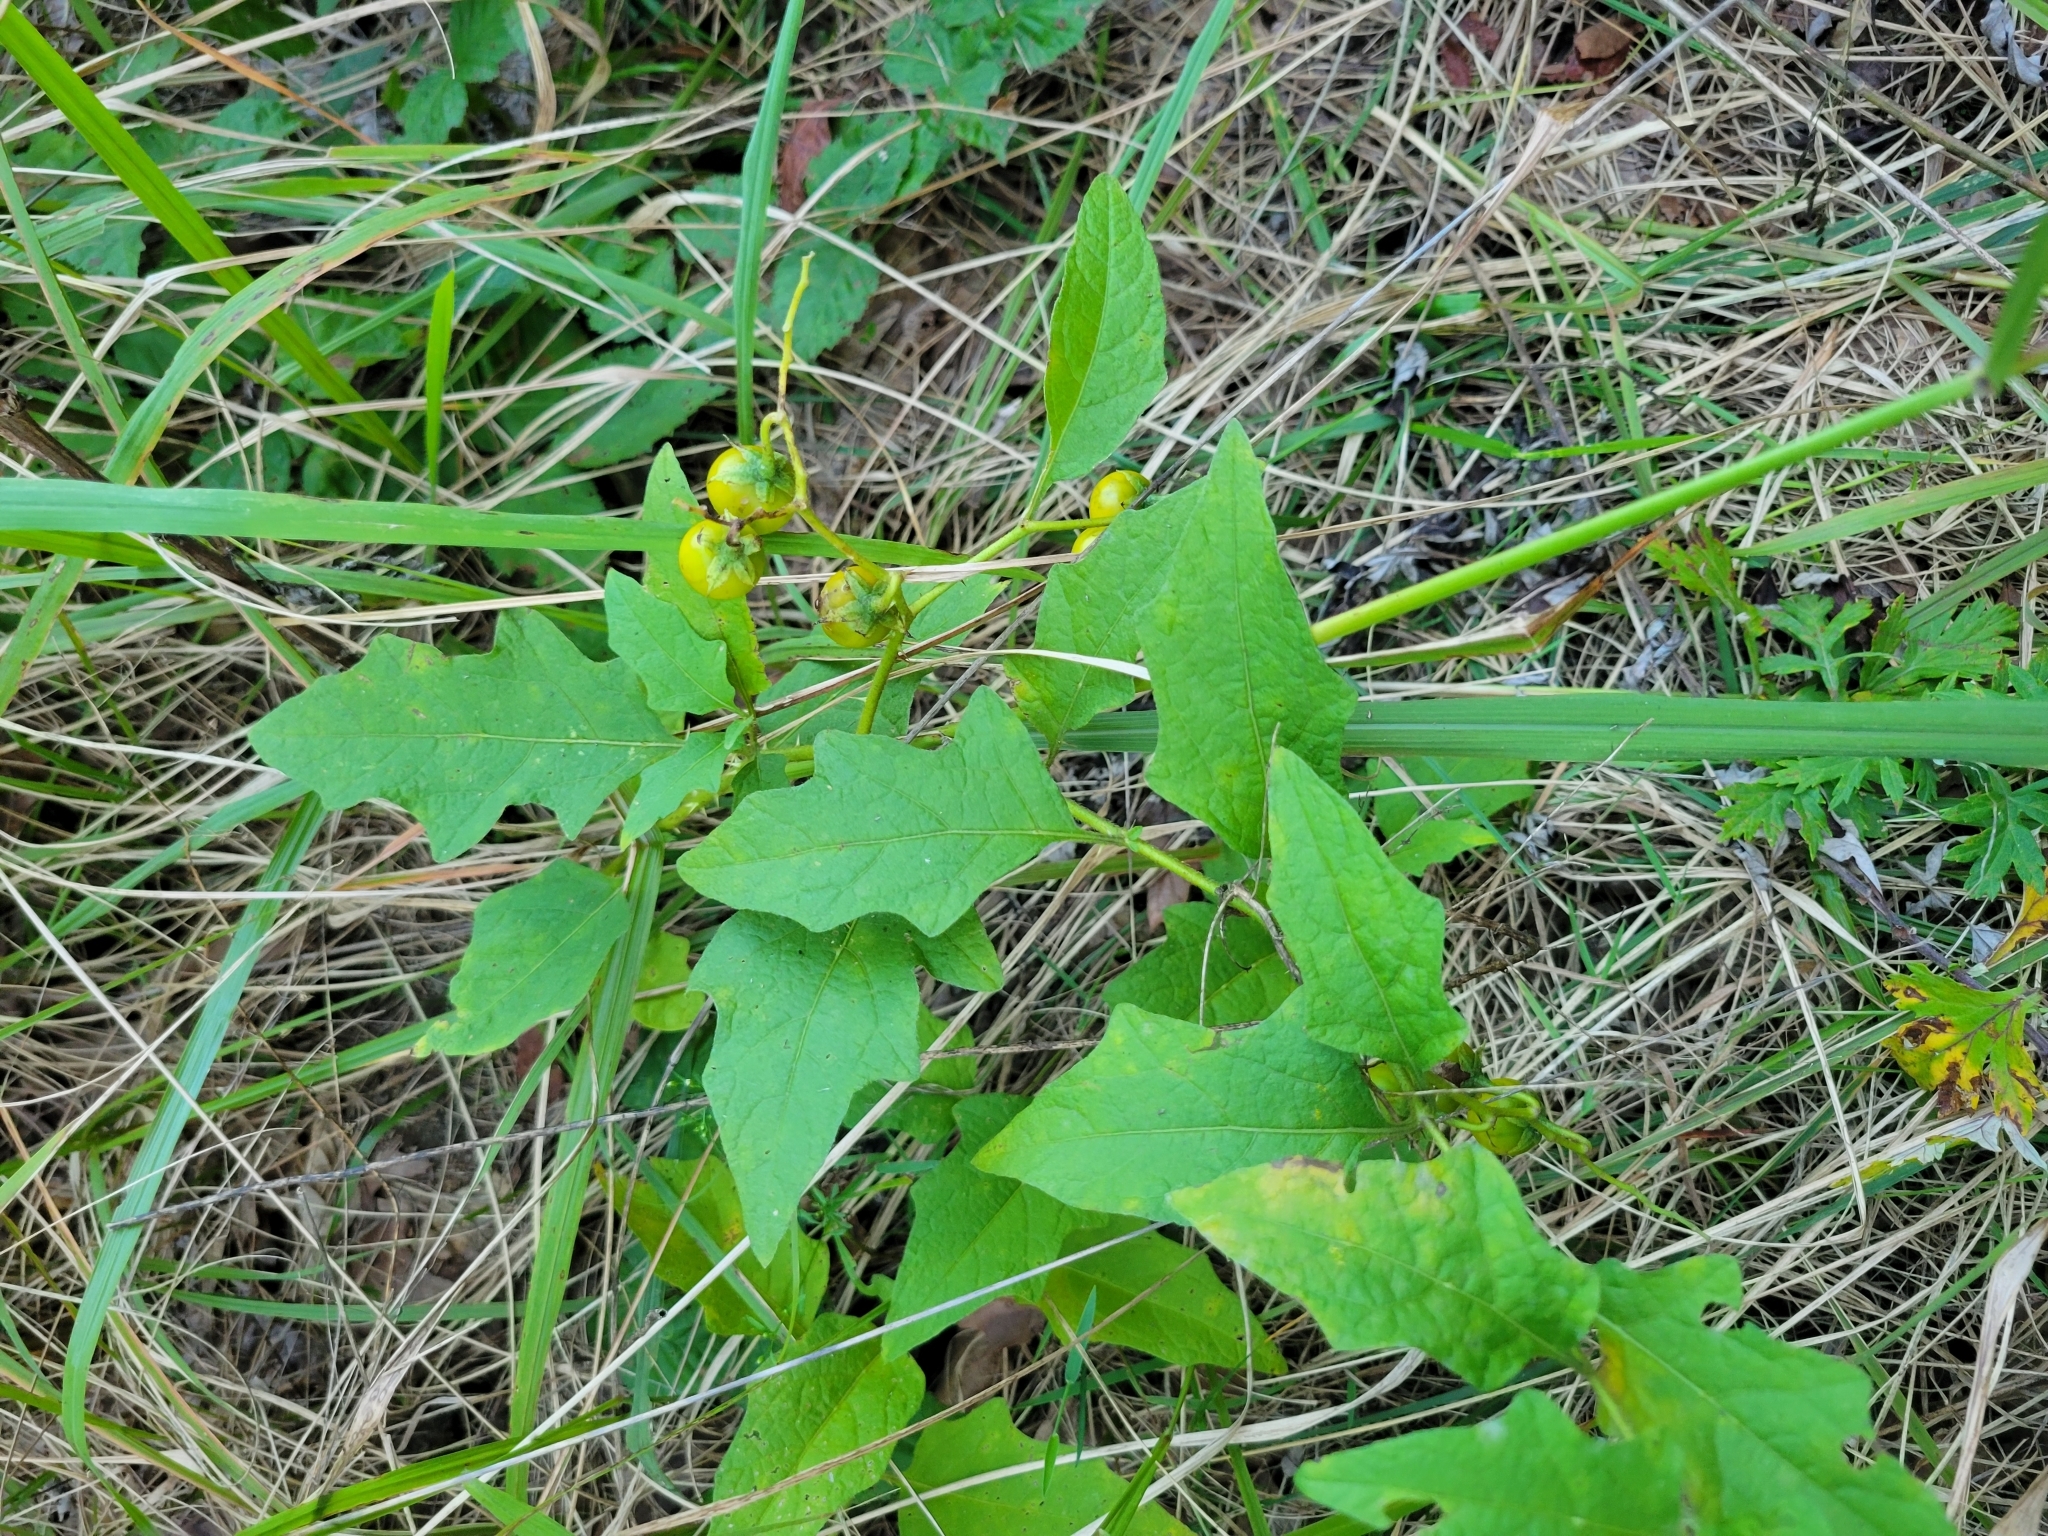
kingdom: Plantae
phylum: Tracheophyta
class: Magnoliopsida
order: Solanales
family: Solanaceae
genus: Solanum
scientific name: Solanum carolinense
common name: Horse-nettle
